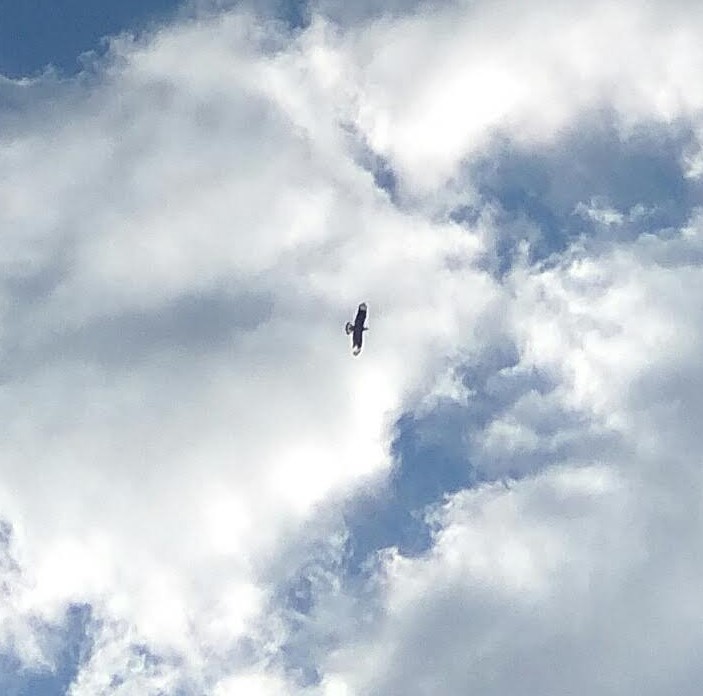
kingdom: Animalia
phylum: Chordata
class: Aves
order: Falconiformes
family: Falconidae
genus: Caracara
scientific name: Caracara plancus
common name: Southern caracara
